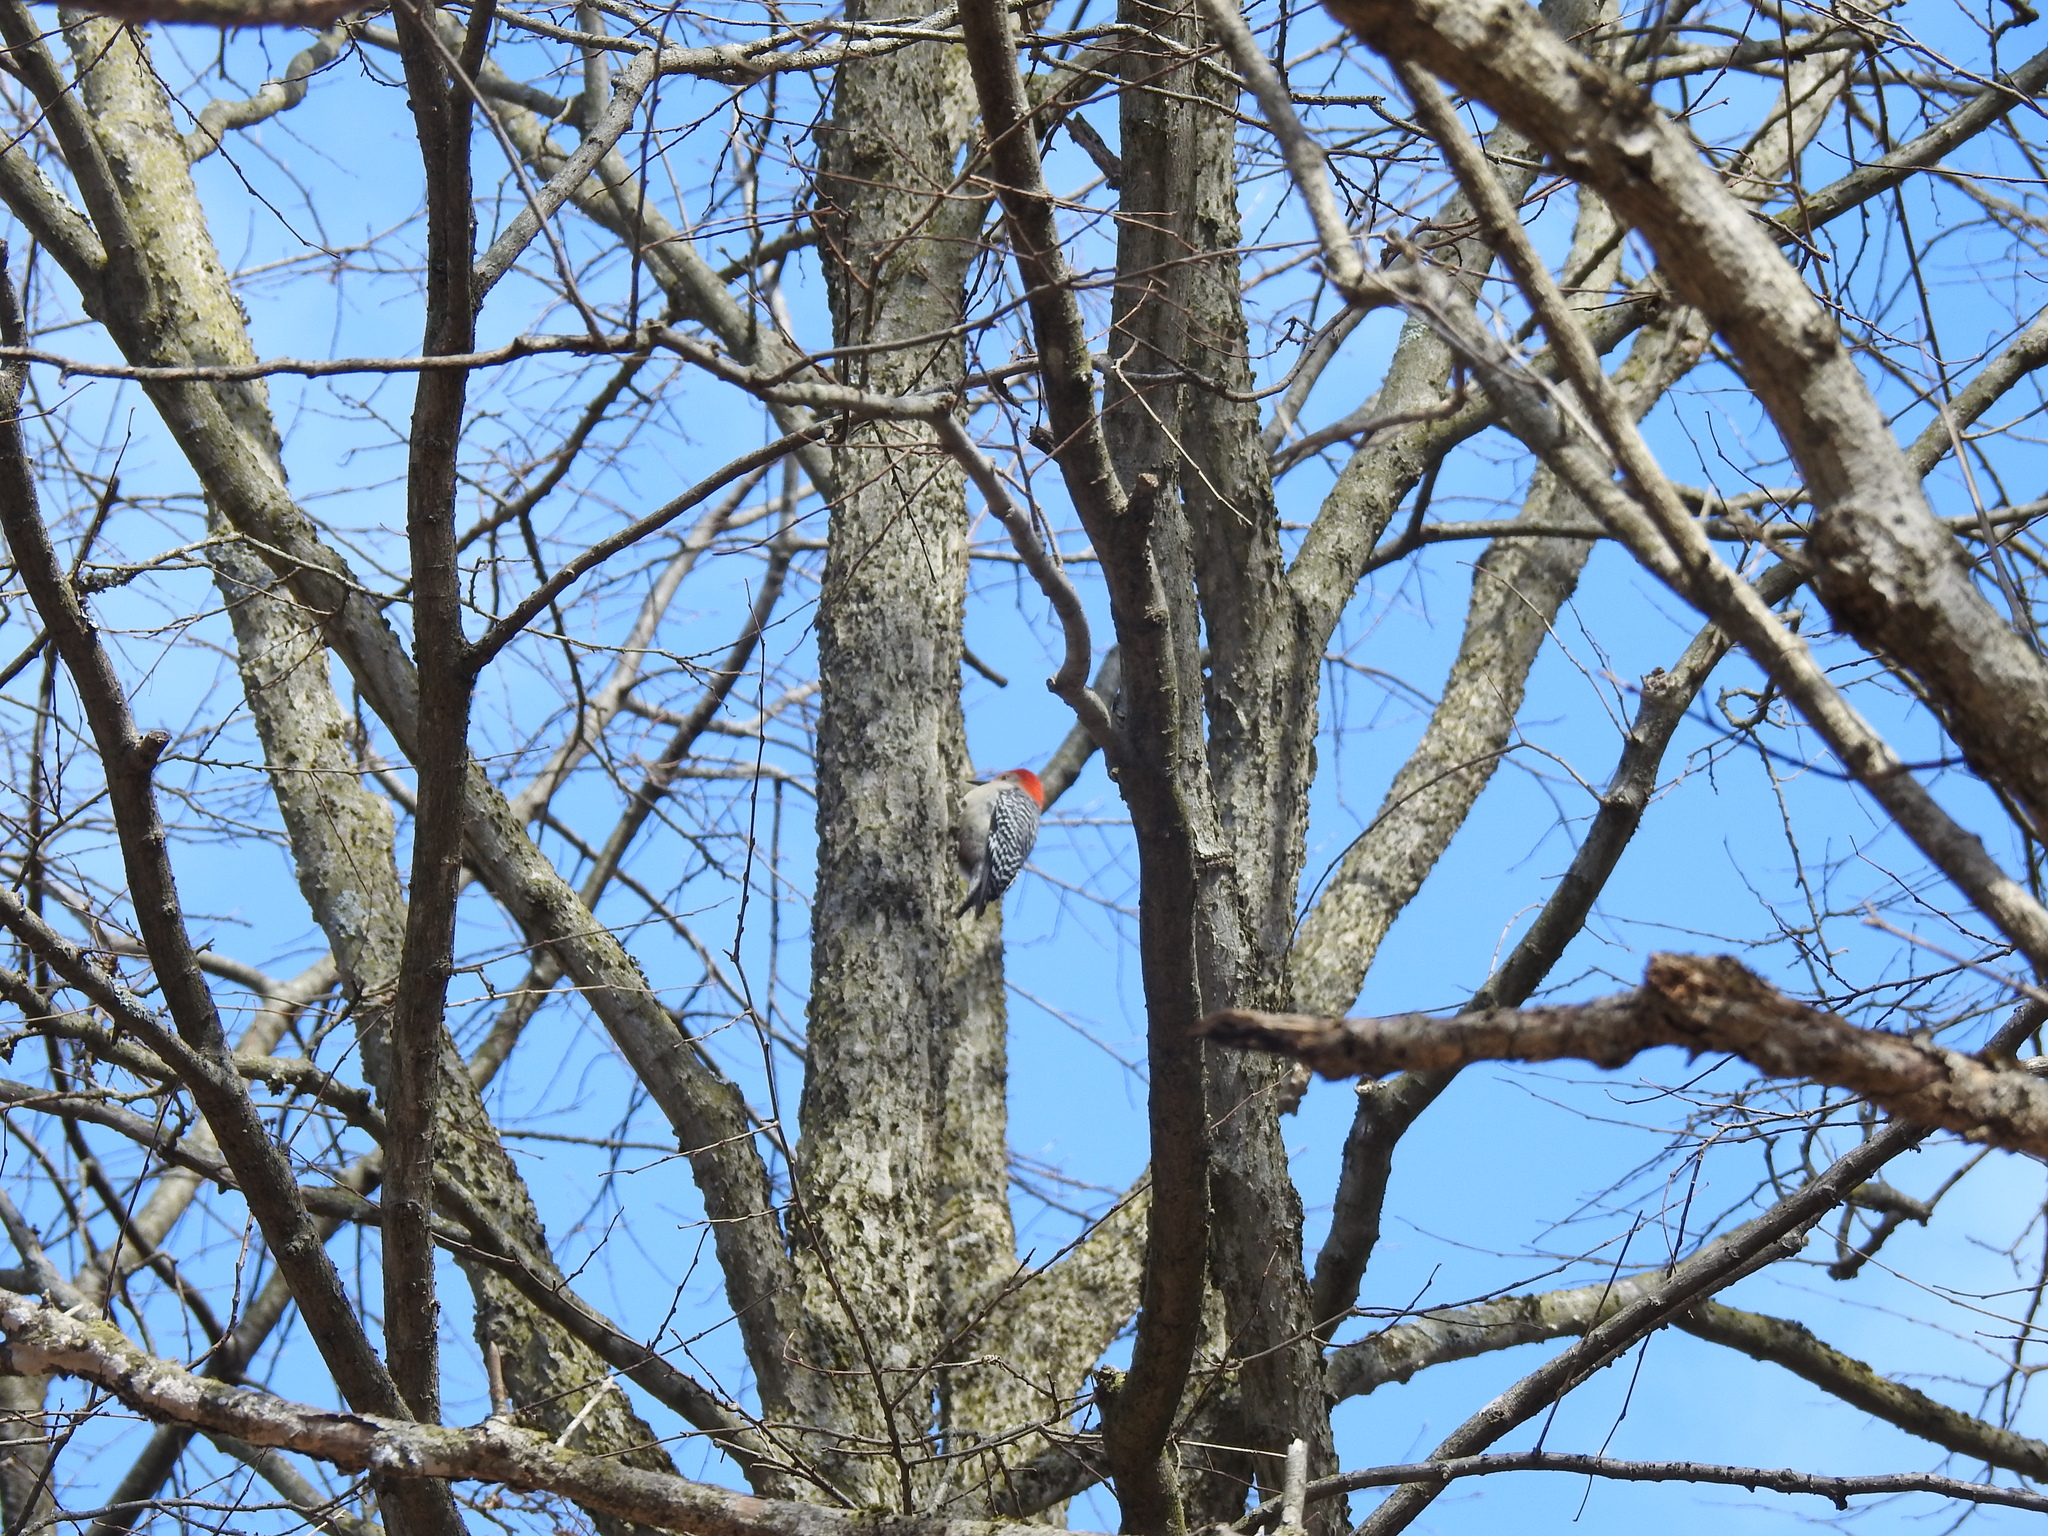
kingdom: Animalia
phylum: Chordata
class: Aves
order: Piciformes
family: Picidae
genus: Melanerpes
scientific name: Melanerpes carolinus
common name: Red-bellied woodpecker
